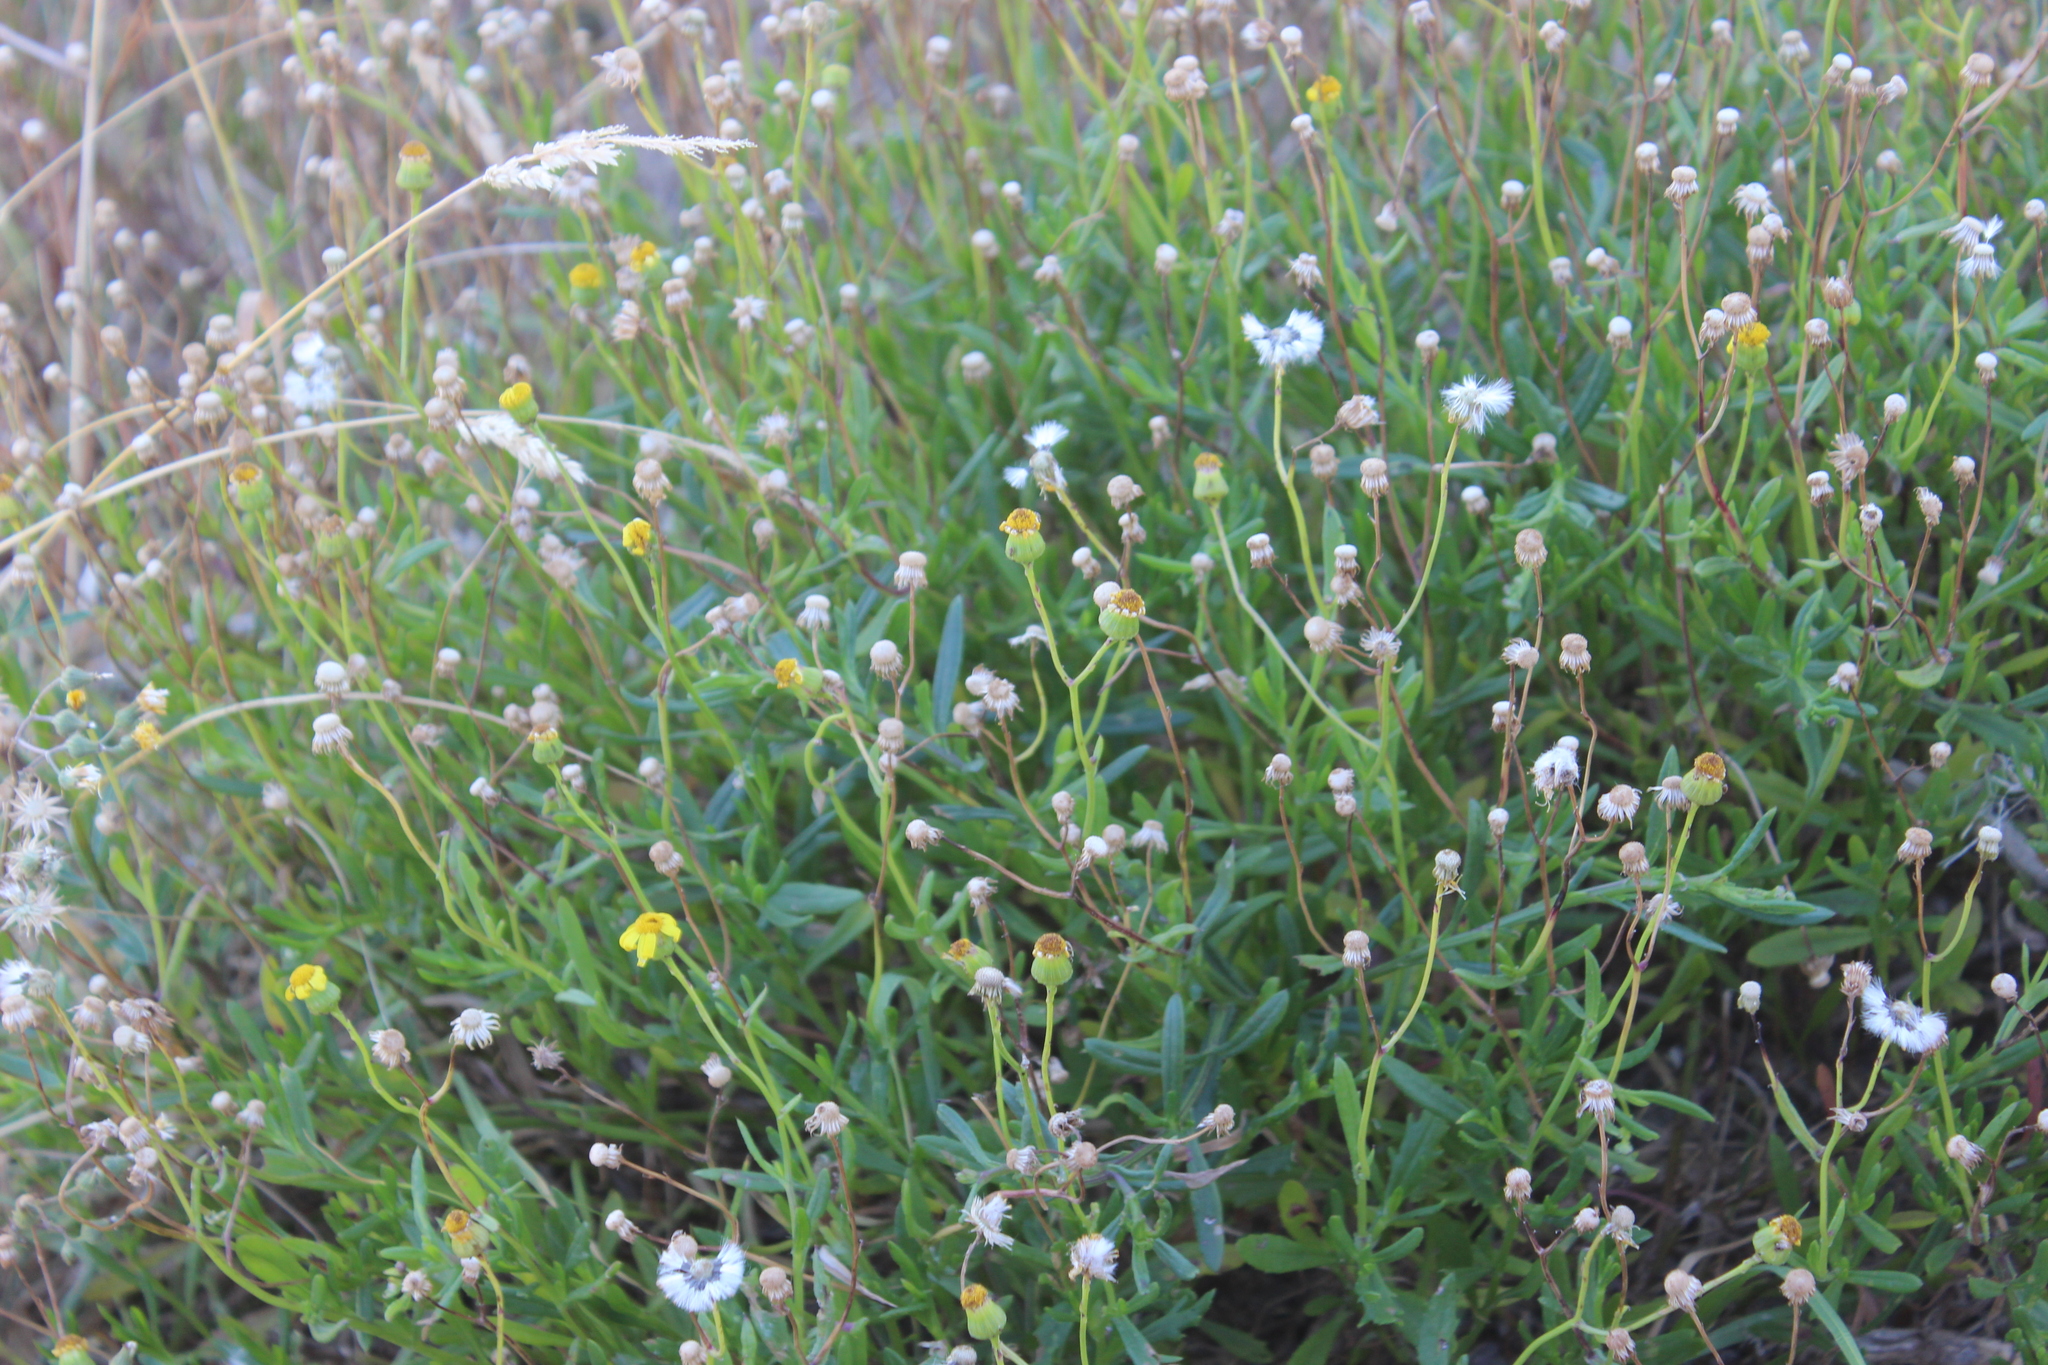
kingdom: Plantae
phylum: Tracheophyta
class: Magnoliopsida
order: Asterales
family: Asteraceae
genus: Senecio
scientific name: Senecio skirrhodon
